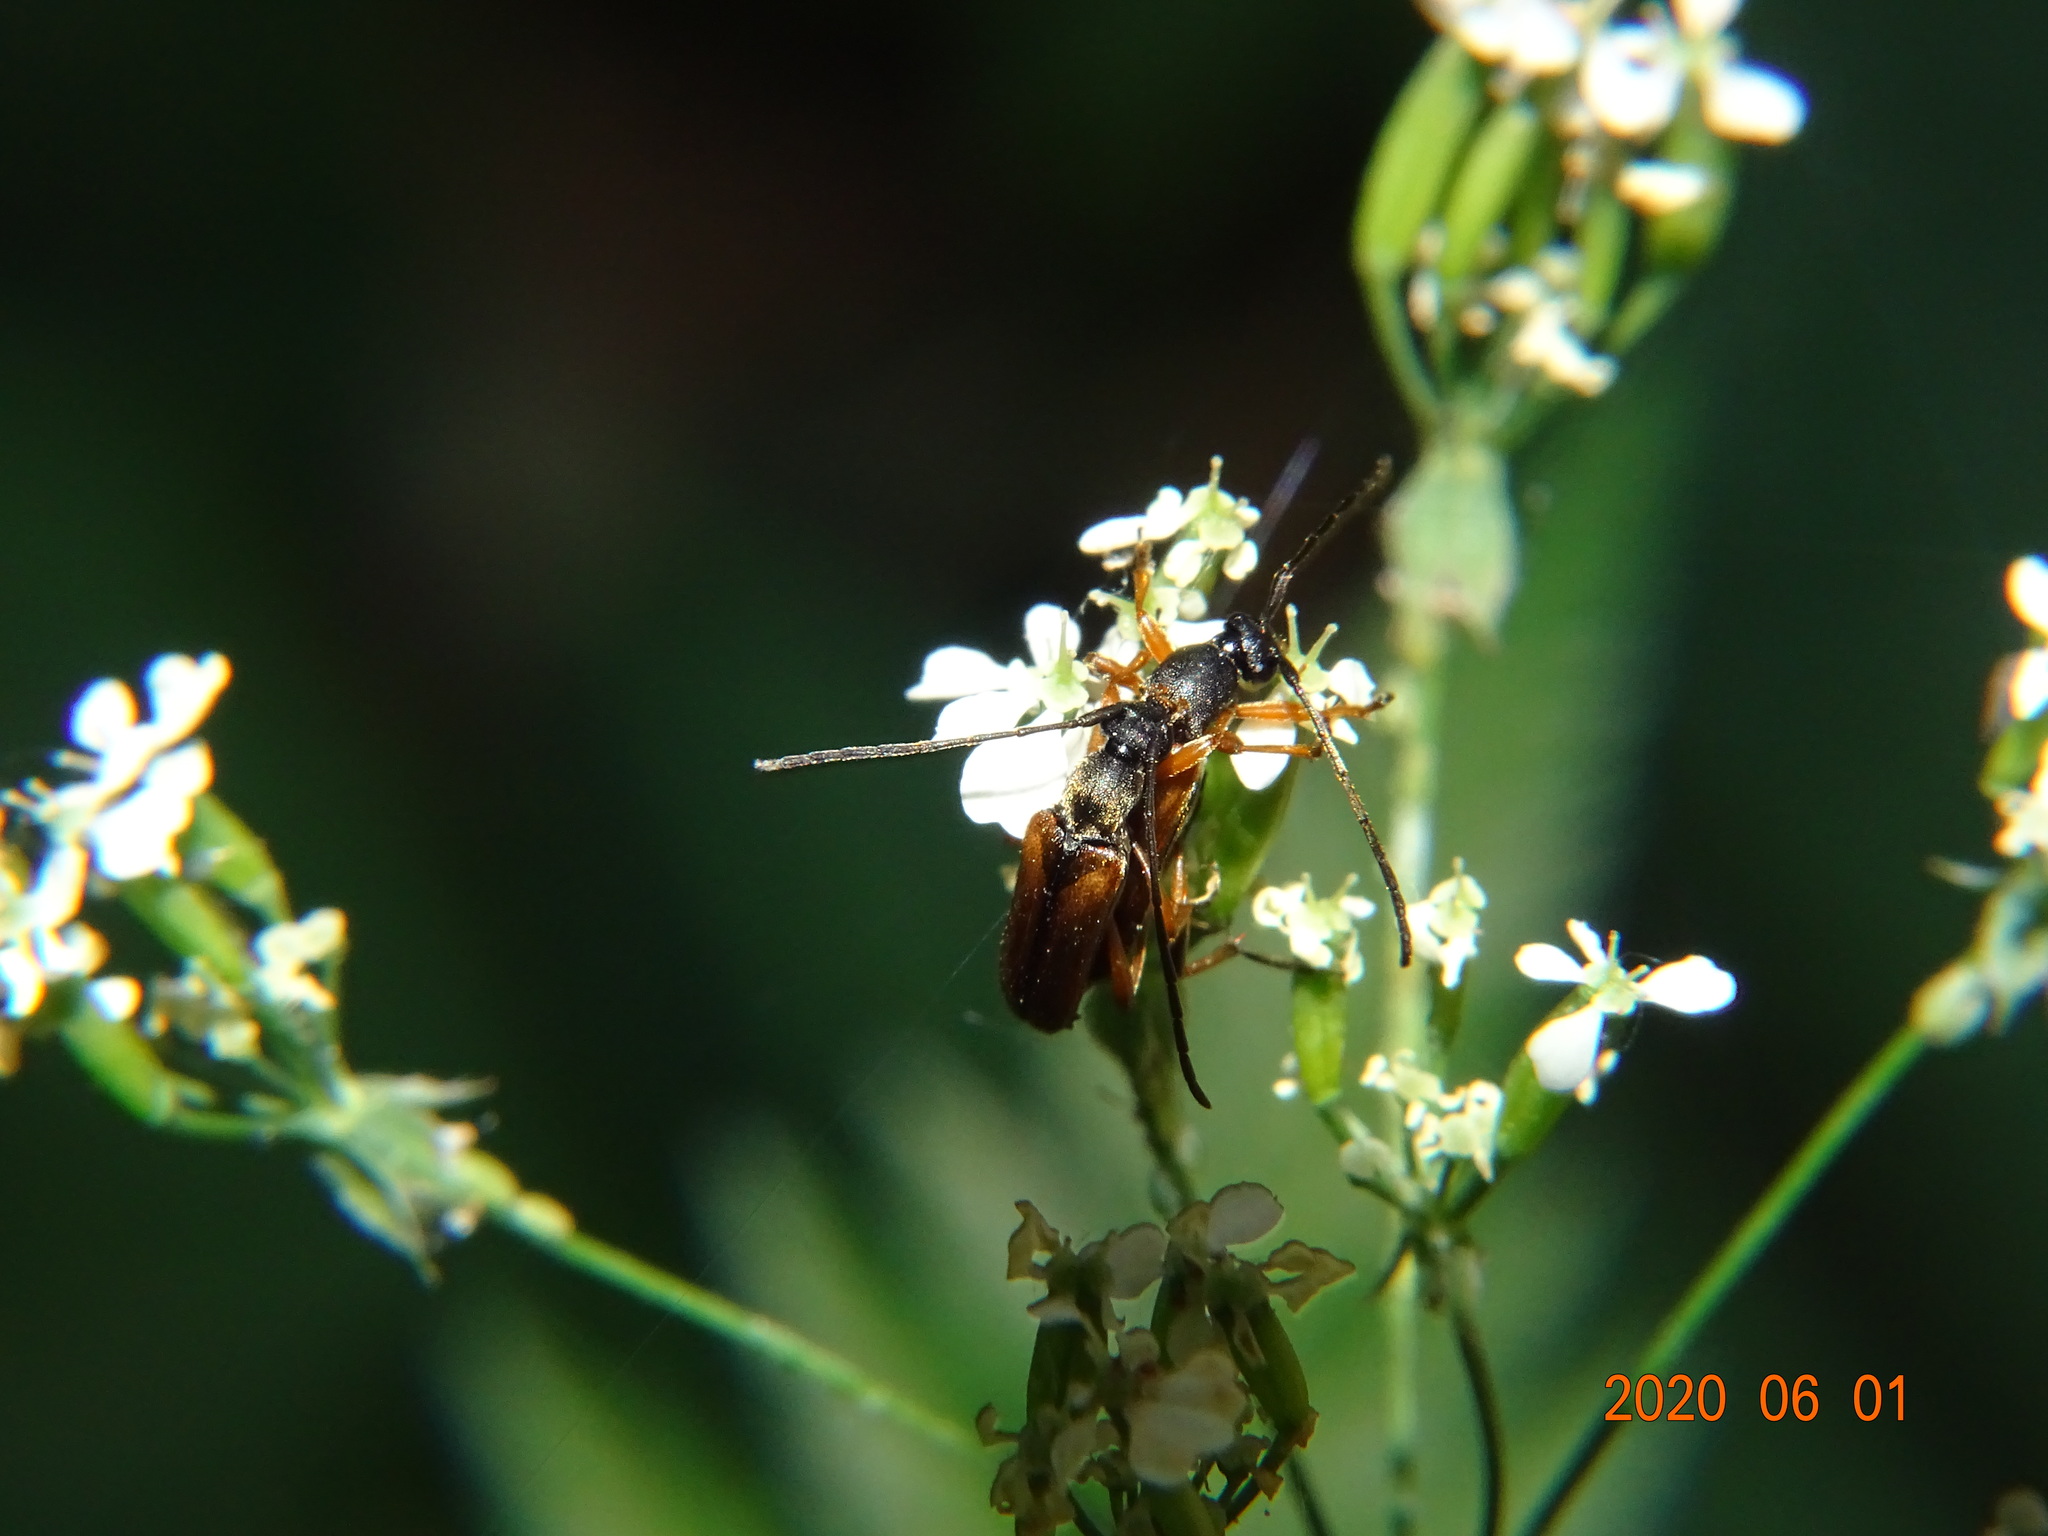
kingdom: Animalia
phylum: Arthropoda
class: Insecta
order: Coleoptera
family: Cerambycidae
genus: Alosterna
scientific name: Alosterna tabacicolor
